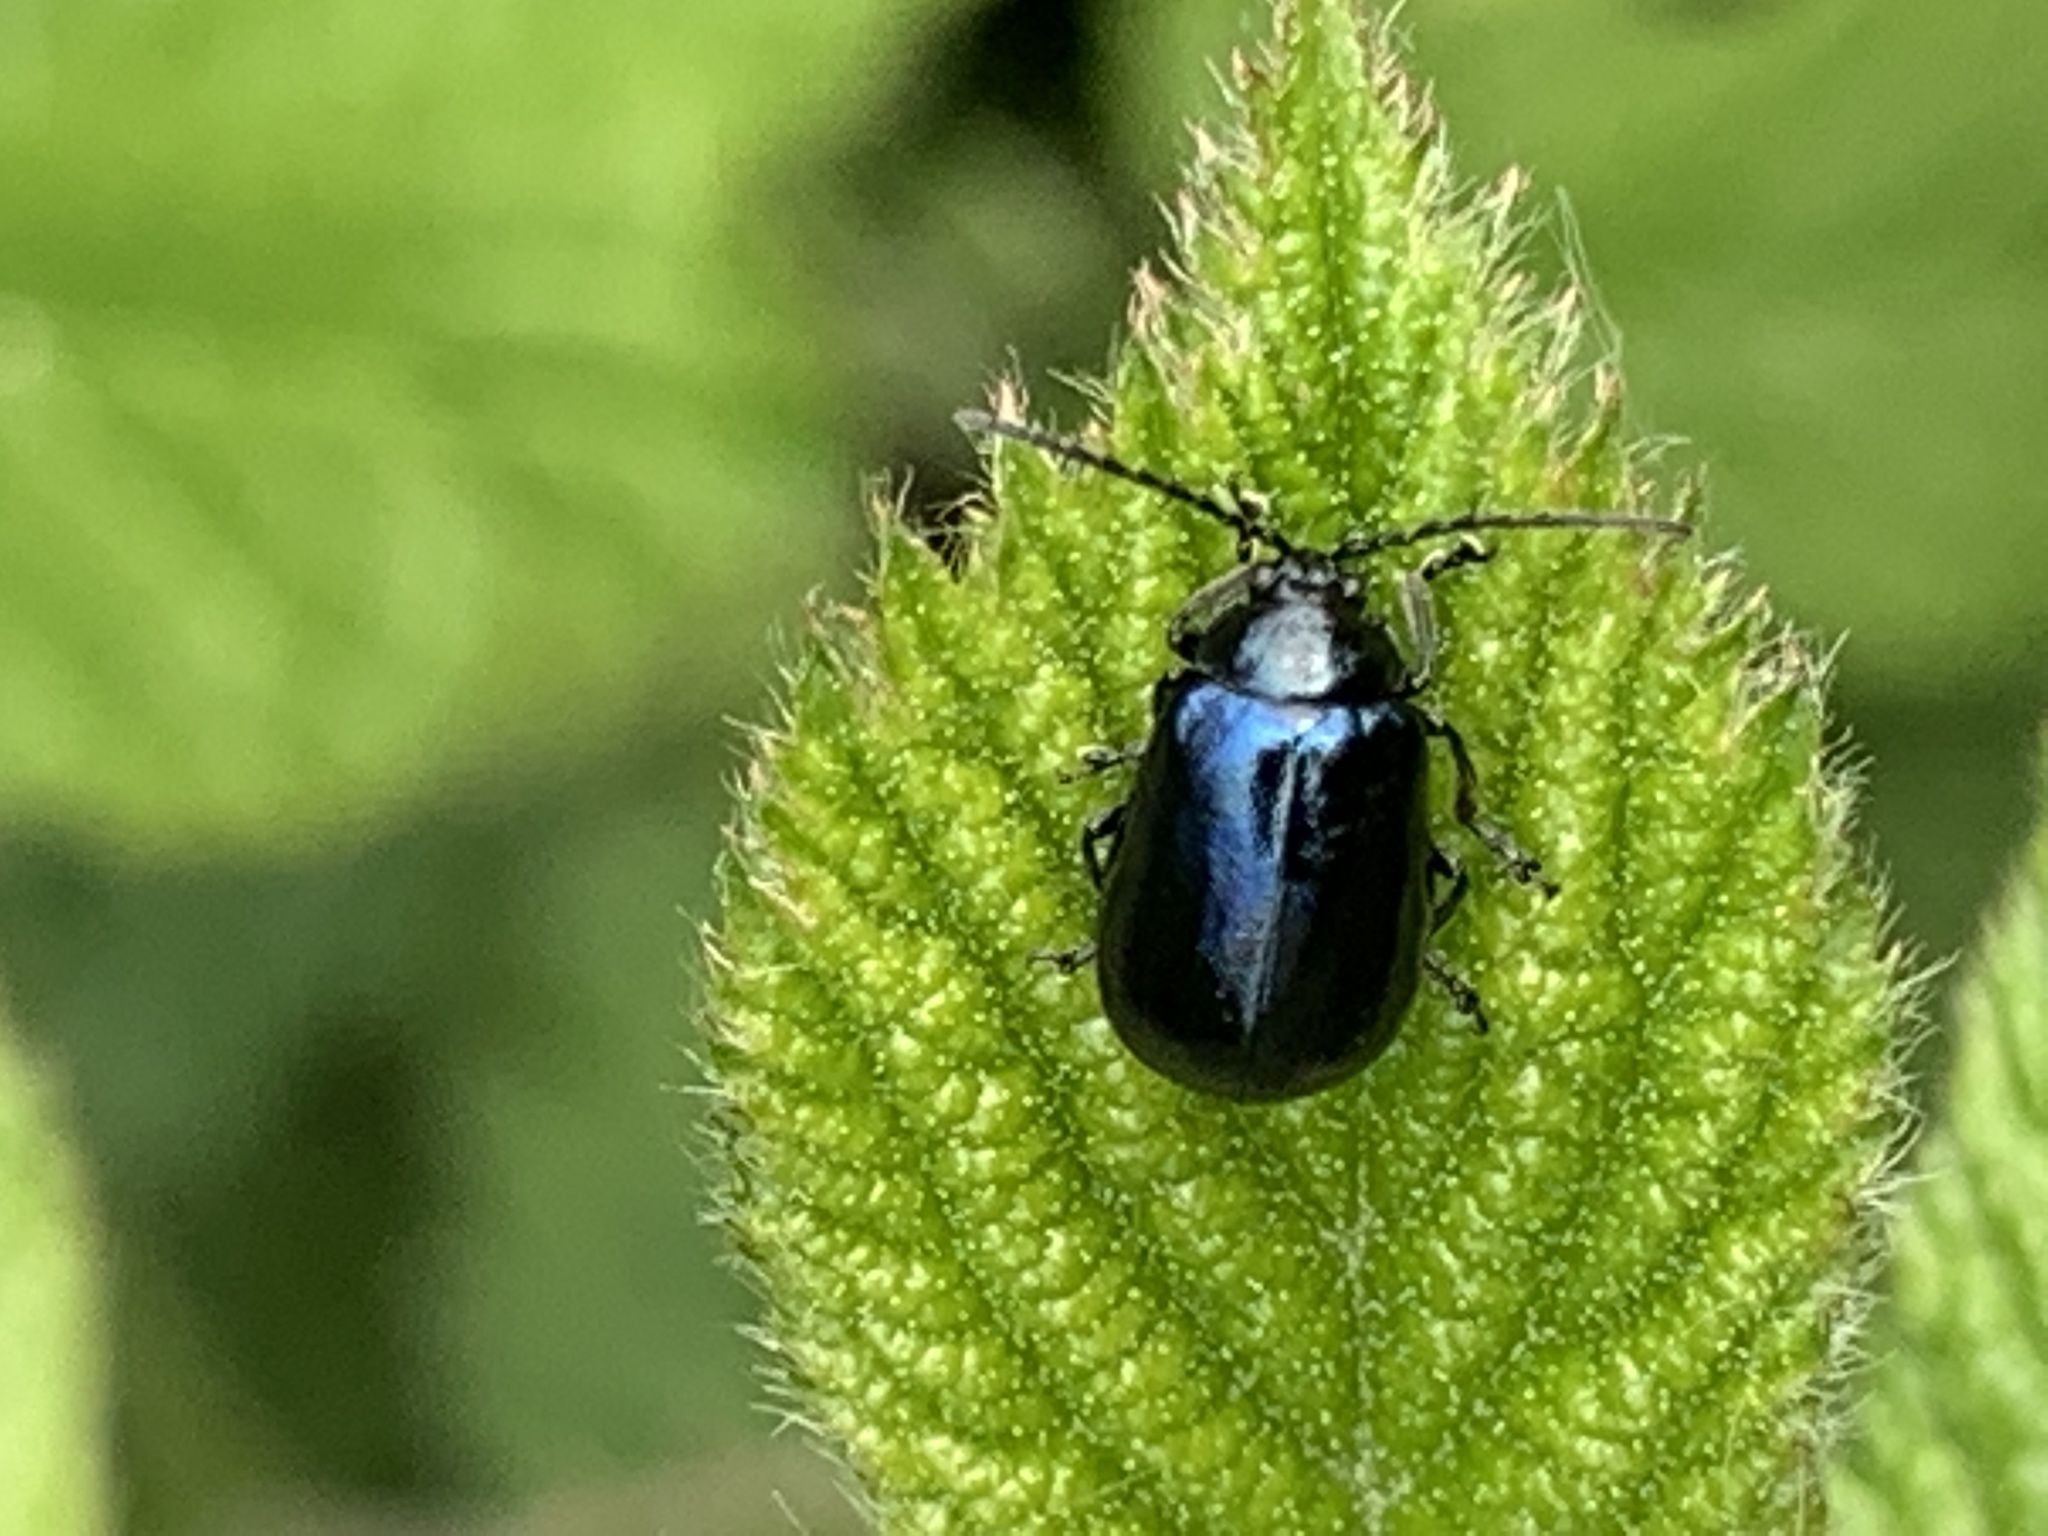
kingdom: Animalia
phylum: Arthropoda
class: Insecta
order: Coleoptera
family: Chrysomelidae
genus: Agelastica
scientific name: Agelastica alni
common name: Alder leaf beetle
